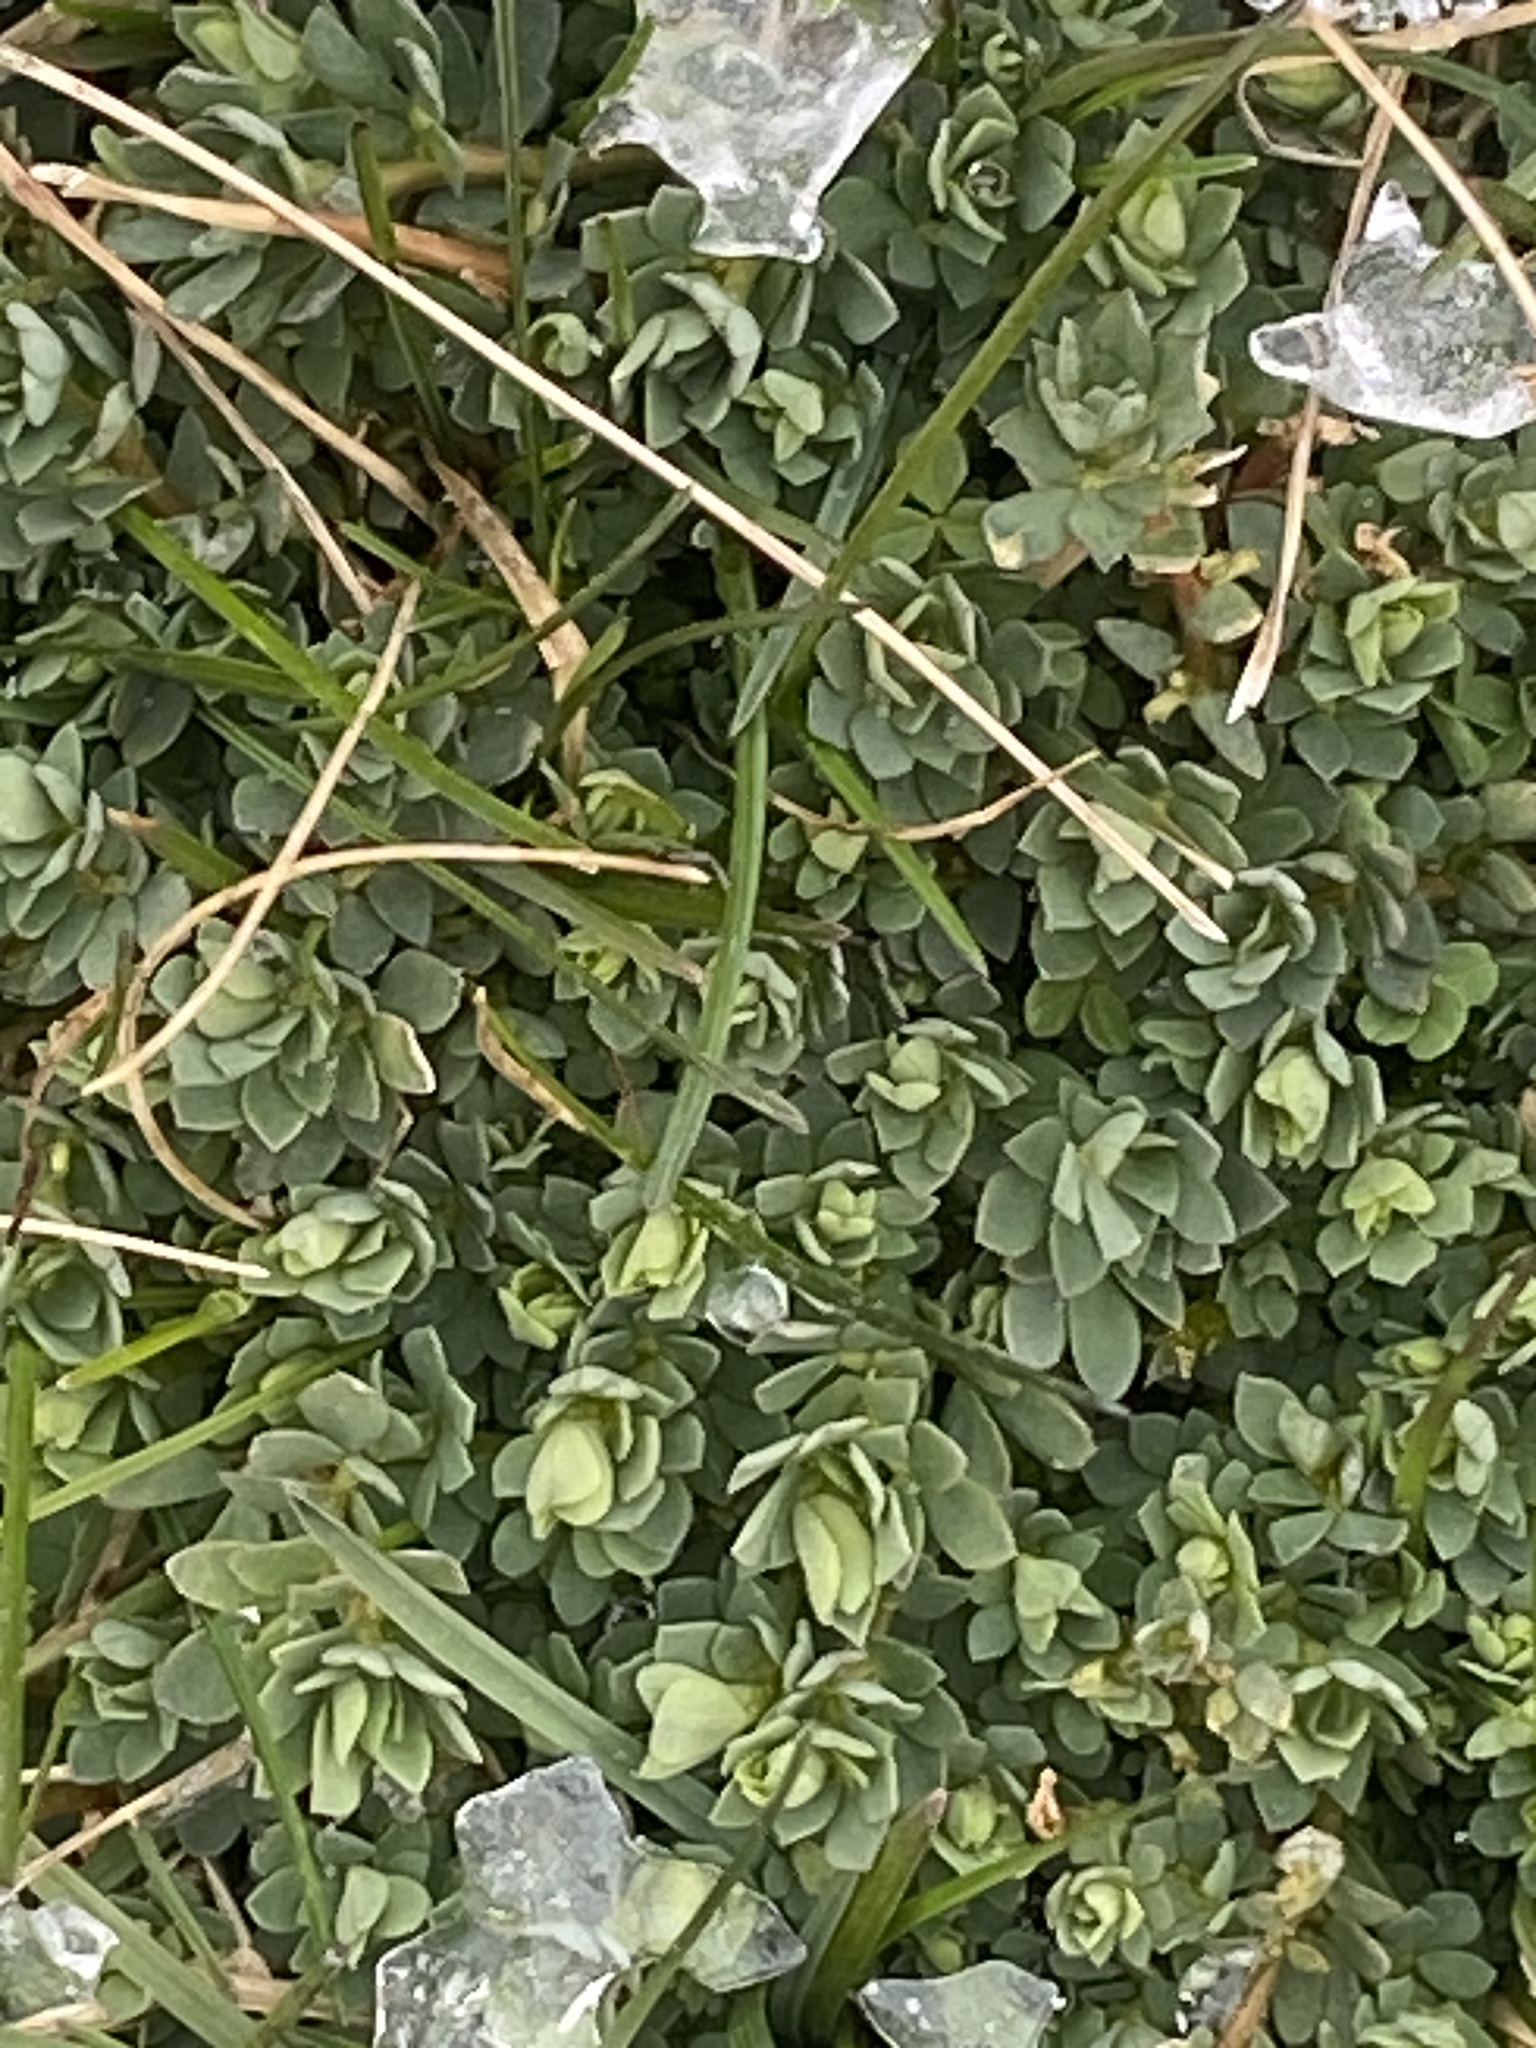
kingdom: Plantae
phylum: Tracheophyta
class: Magnoliopsida
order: Fabales
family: Fabaceae
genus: Lotus
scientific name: Lotus corniculatus
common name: Common bird's-foot-trefoil
